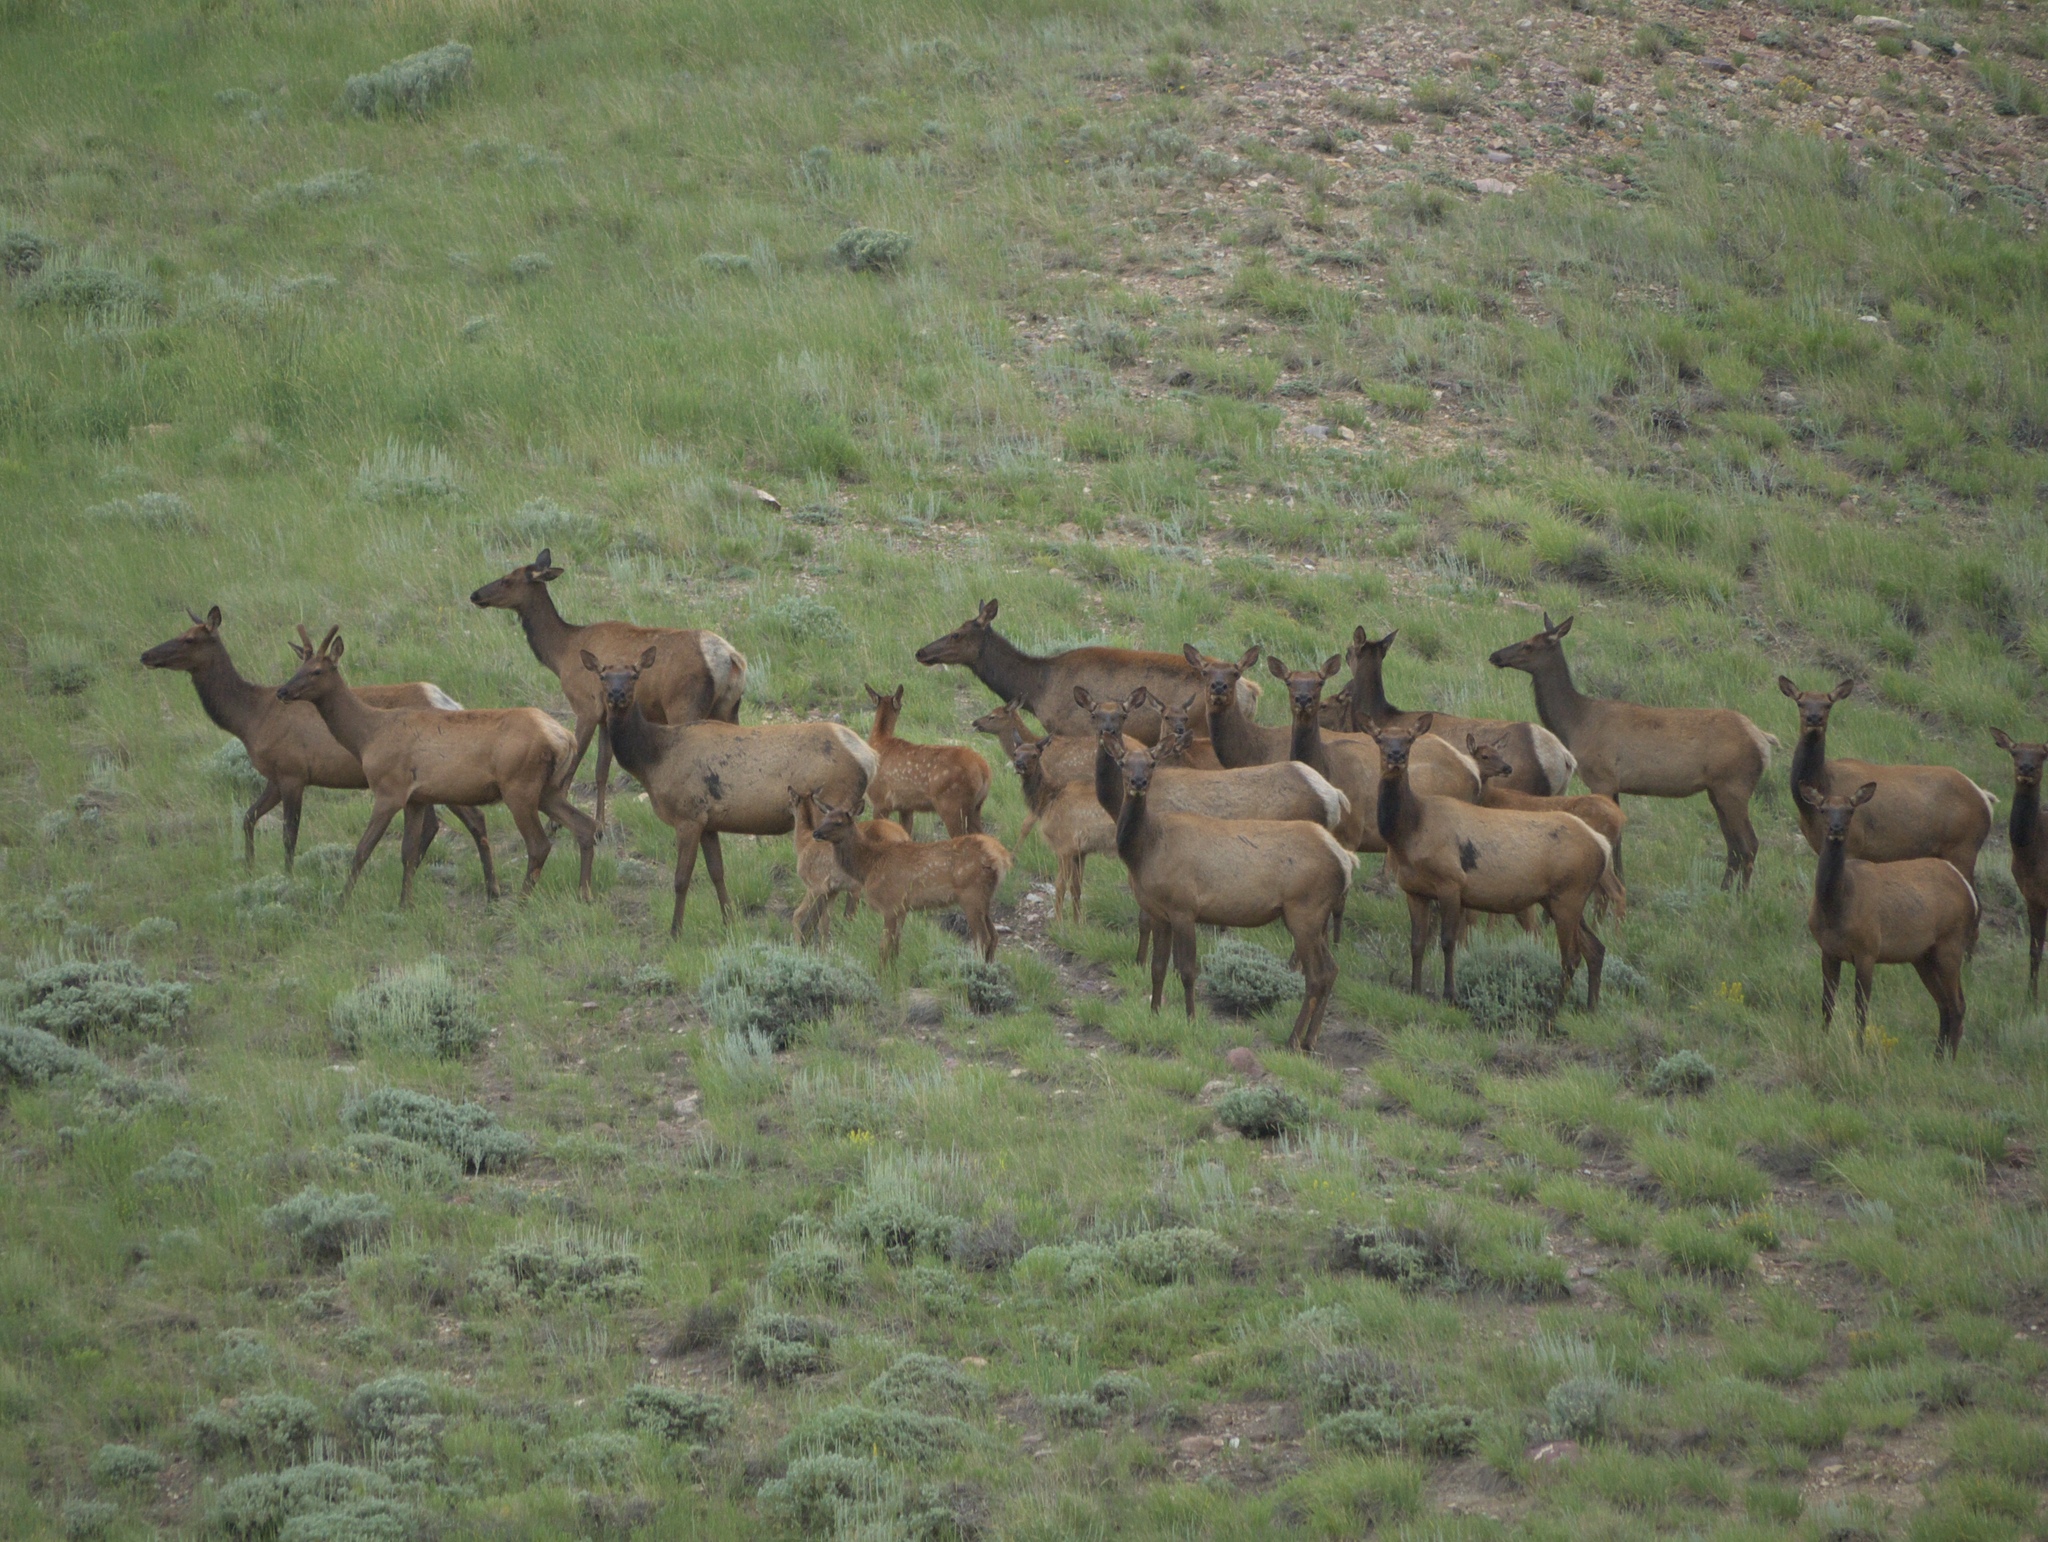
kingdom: Animalia
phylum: Chordata
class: Mammalia
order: Artiodactyla
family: Cervidae
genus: Cervus
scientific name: Cervus elaphus
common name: Red deer
